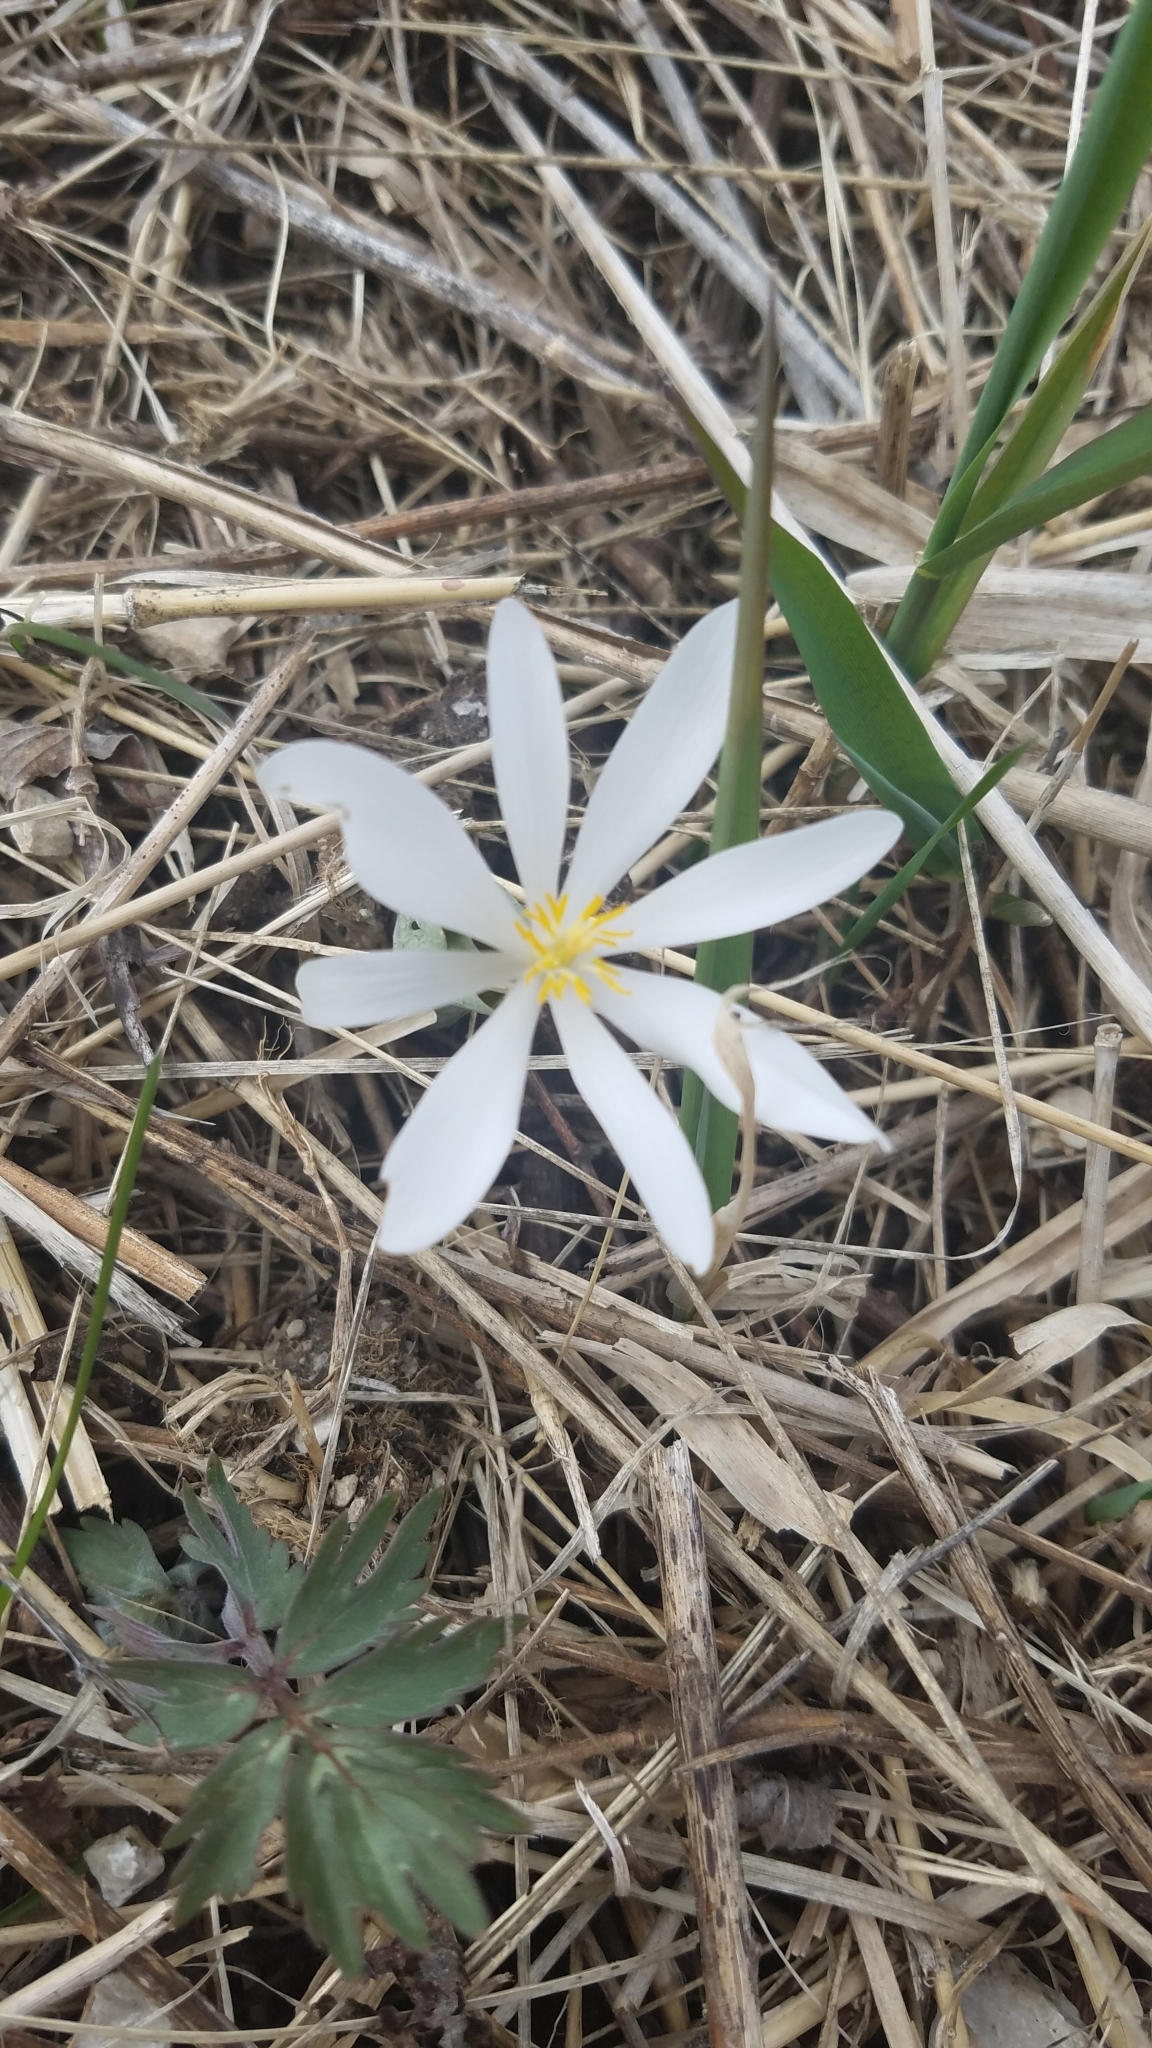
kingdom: Plantae
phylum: Tracheophyta
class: Magnoliopsida
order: Ranunculales
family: Papaveraceae
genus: Sanguinaria
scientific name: Sanguinaria canadensis
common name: Bloodroot
